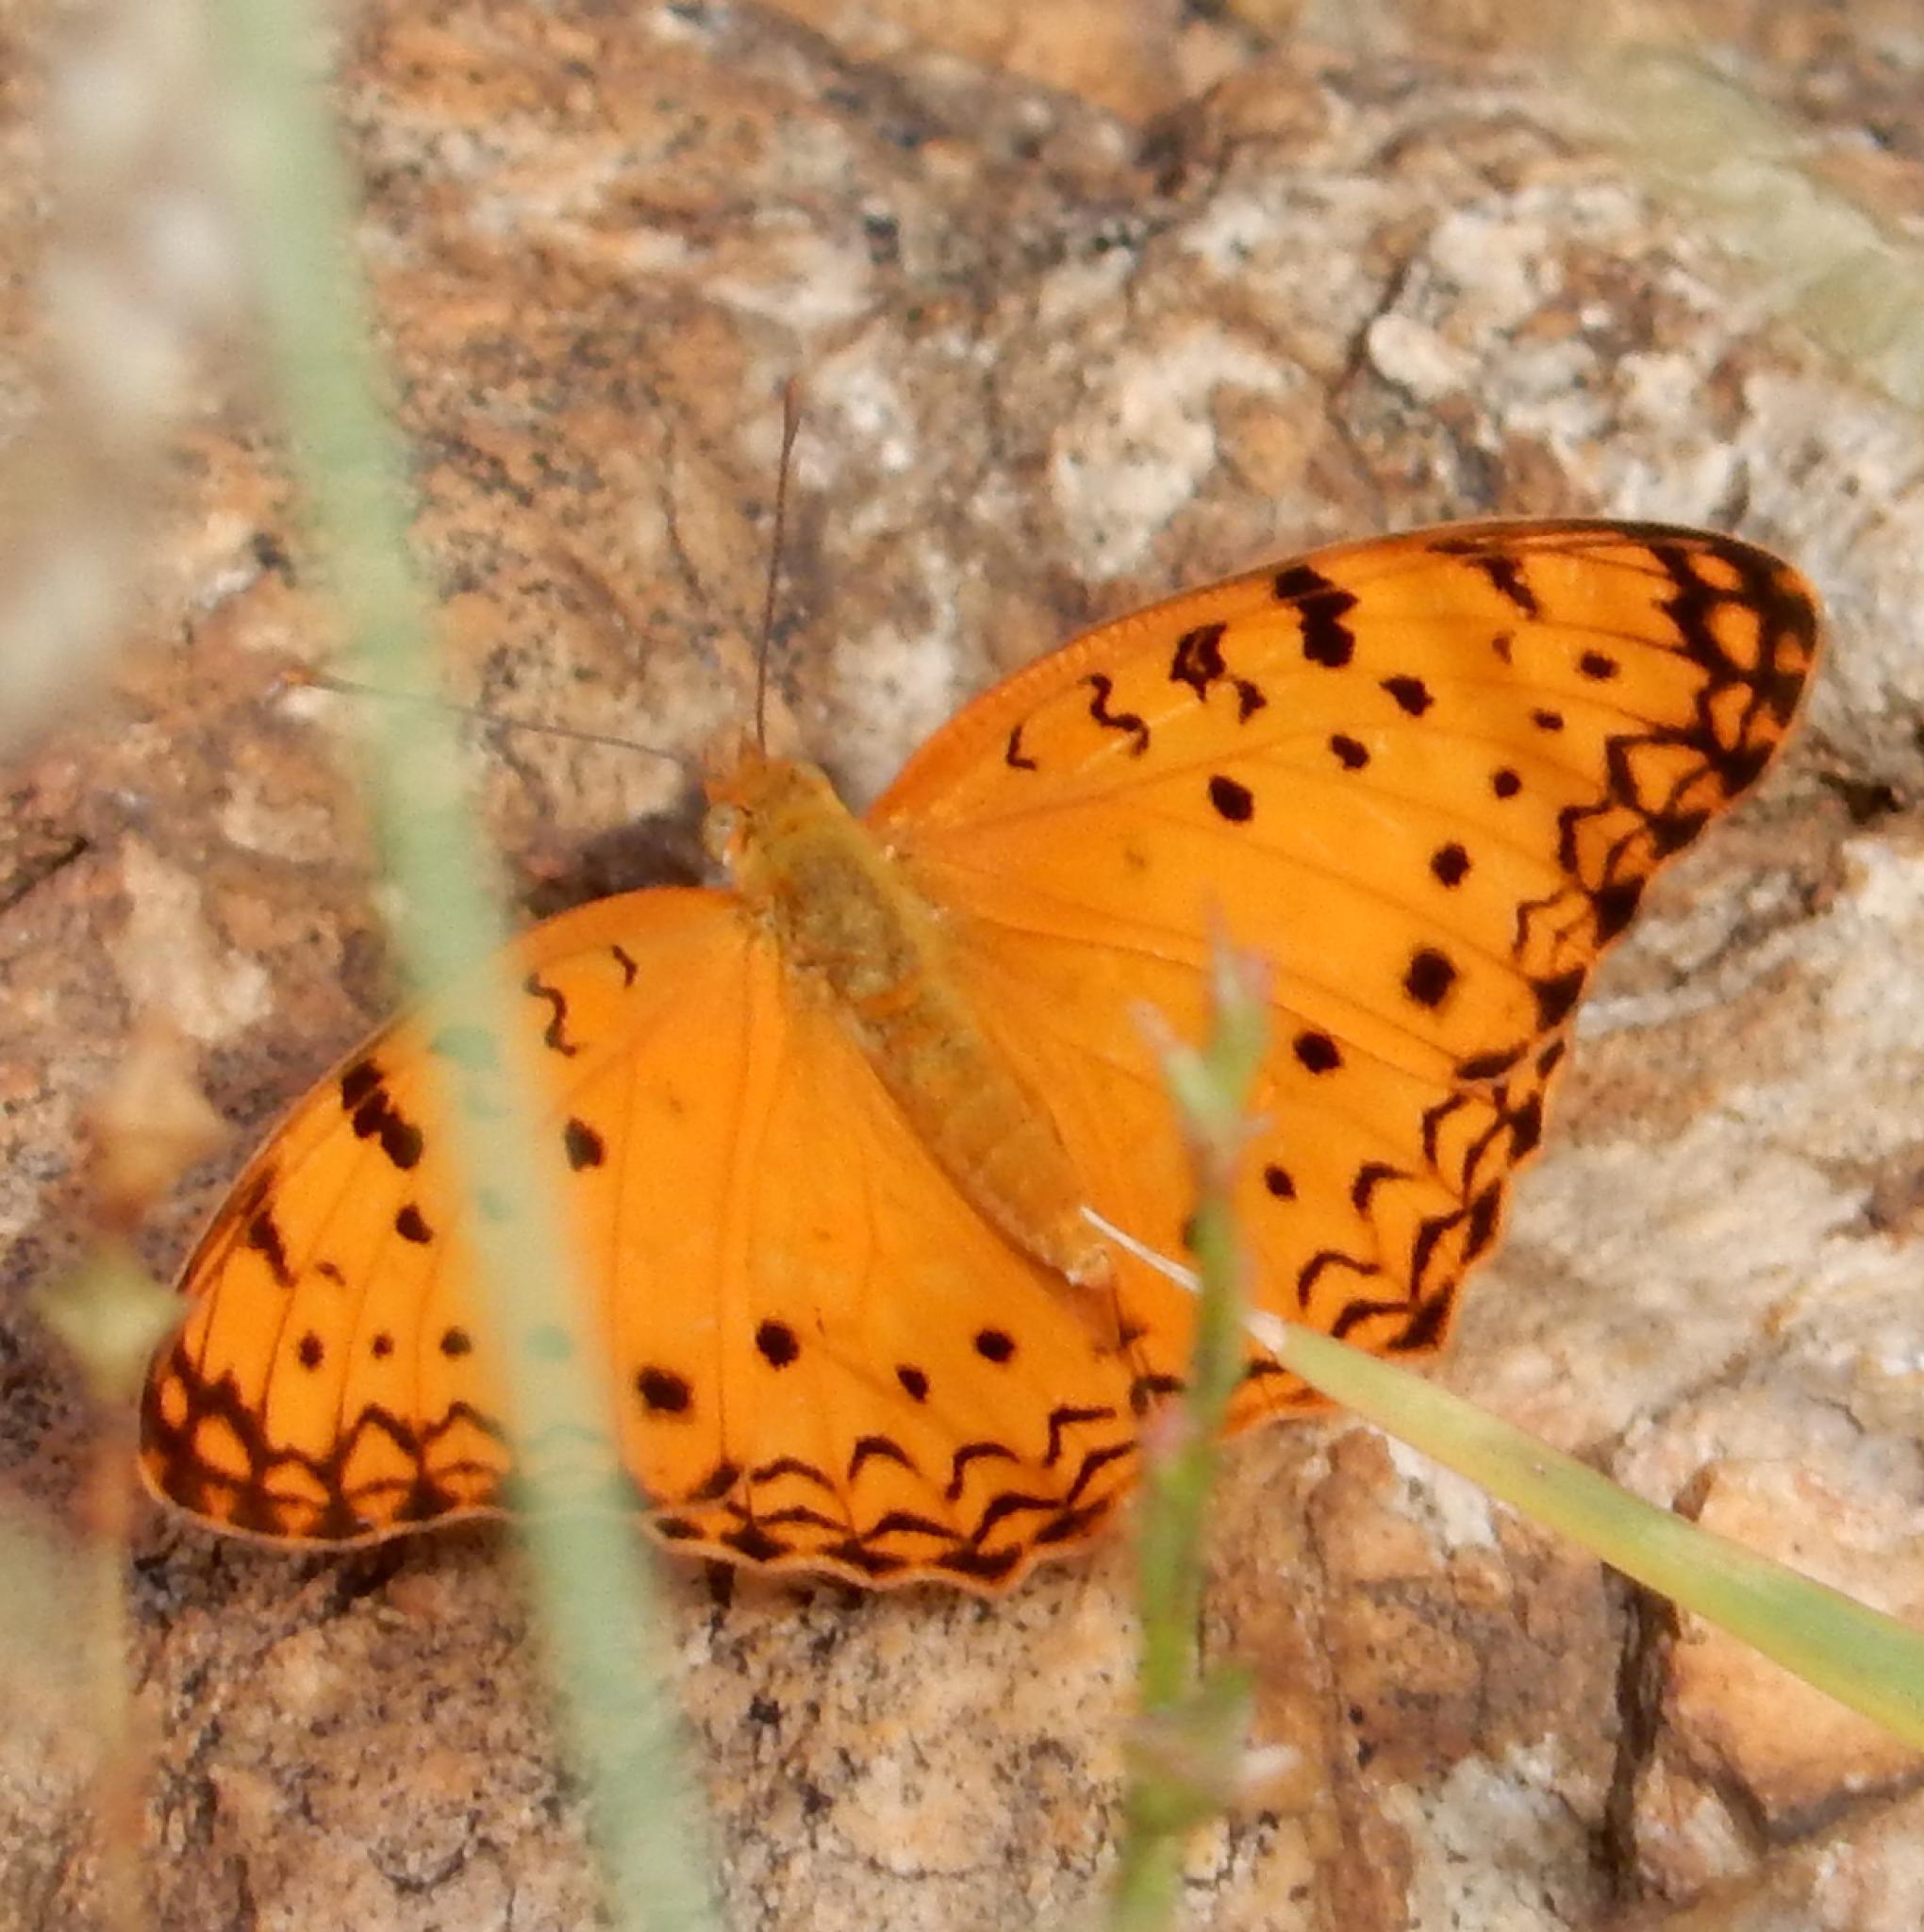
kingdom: Animalia
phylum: Arthropoda
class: Insecta
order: Lepidoptera
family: Nymphalidae
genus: Phalanta
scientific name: Phalanta phalantha
